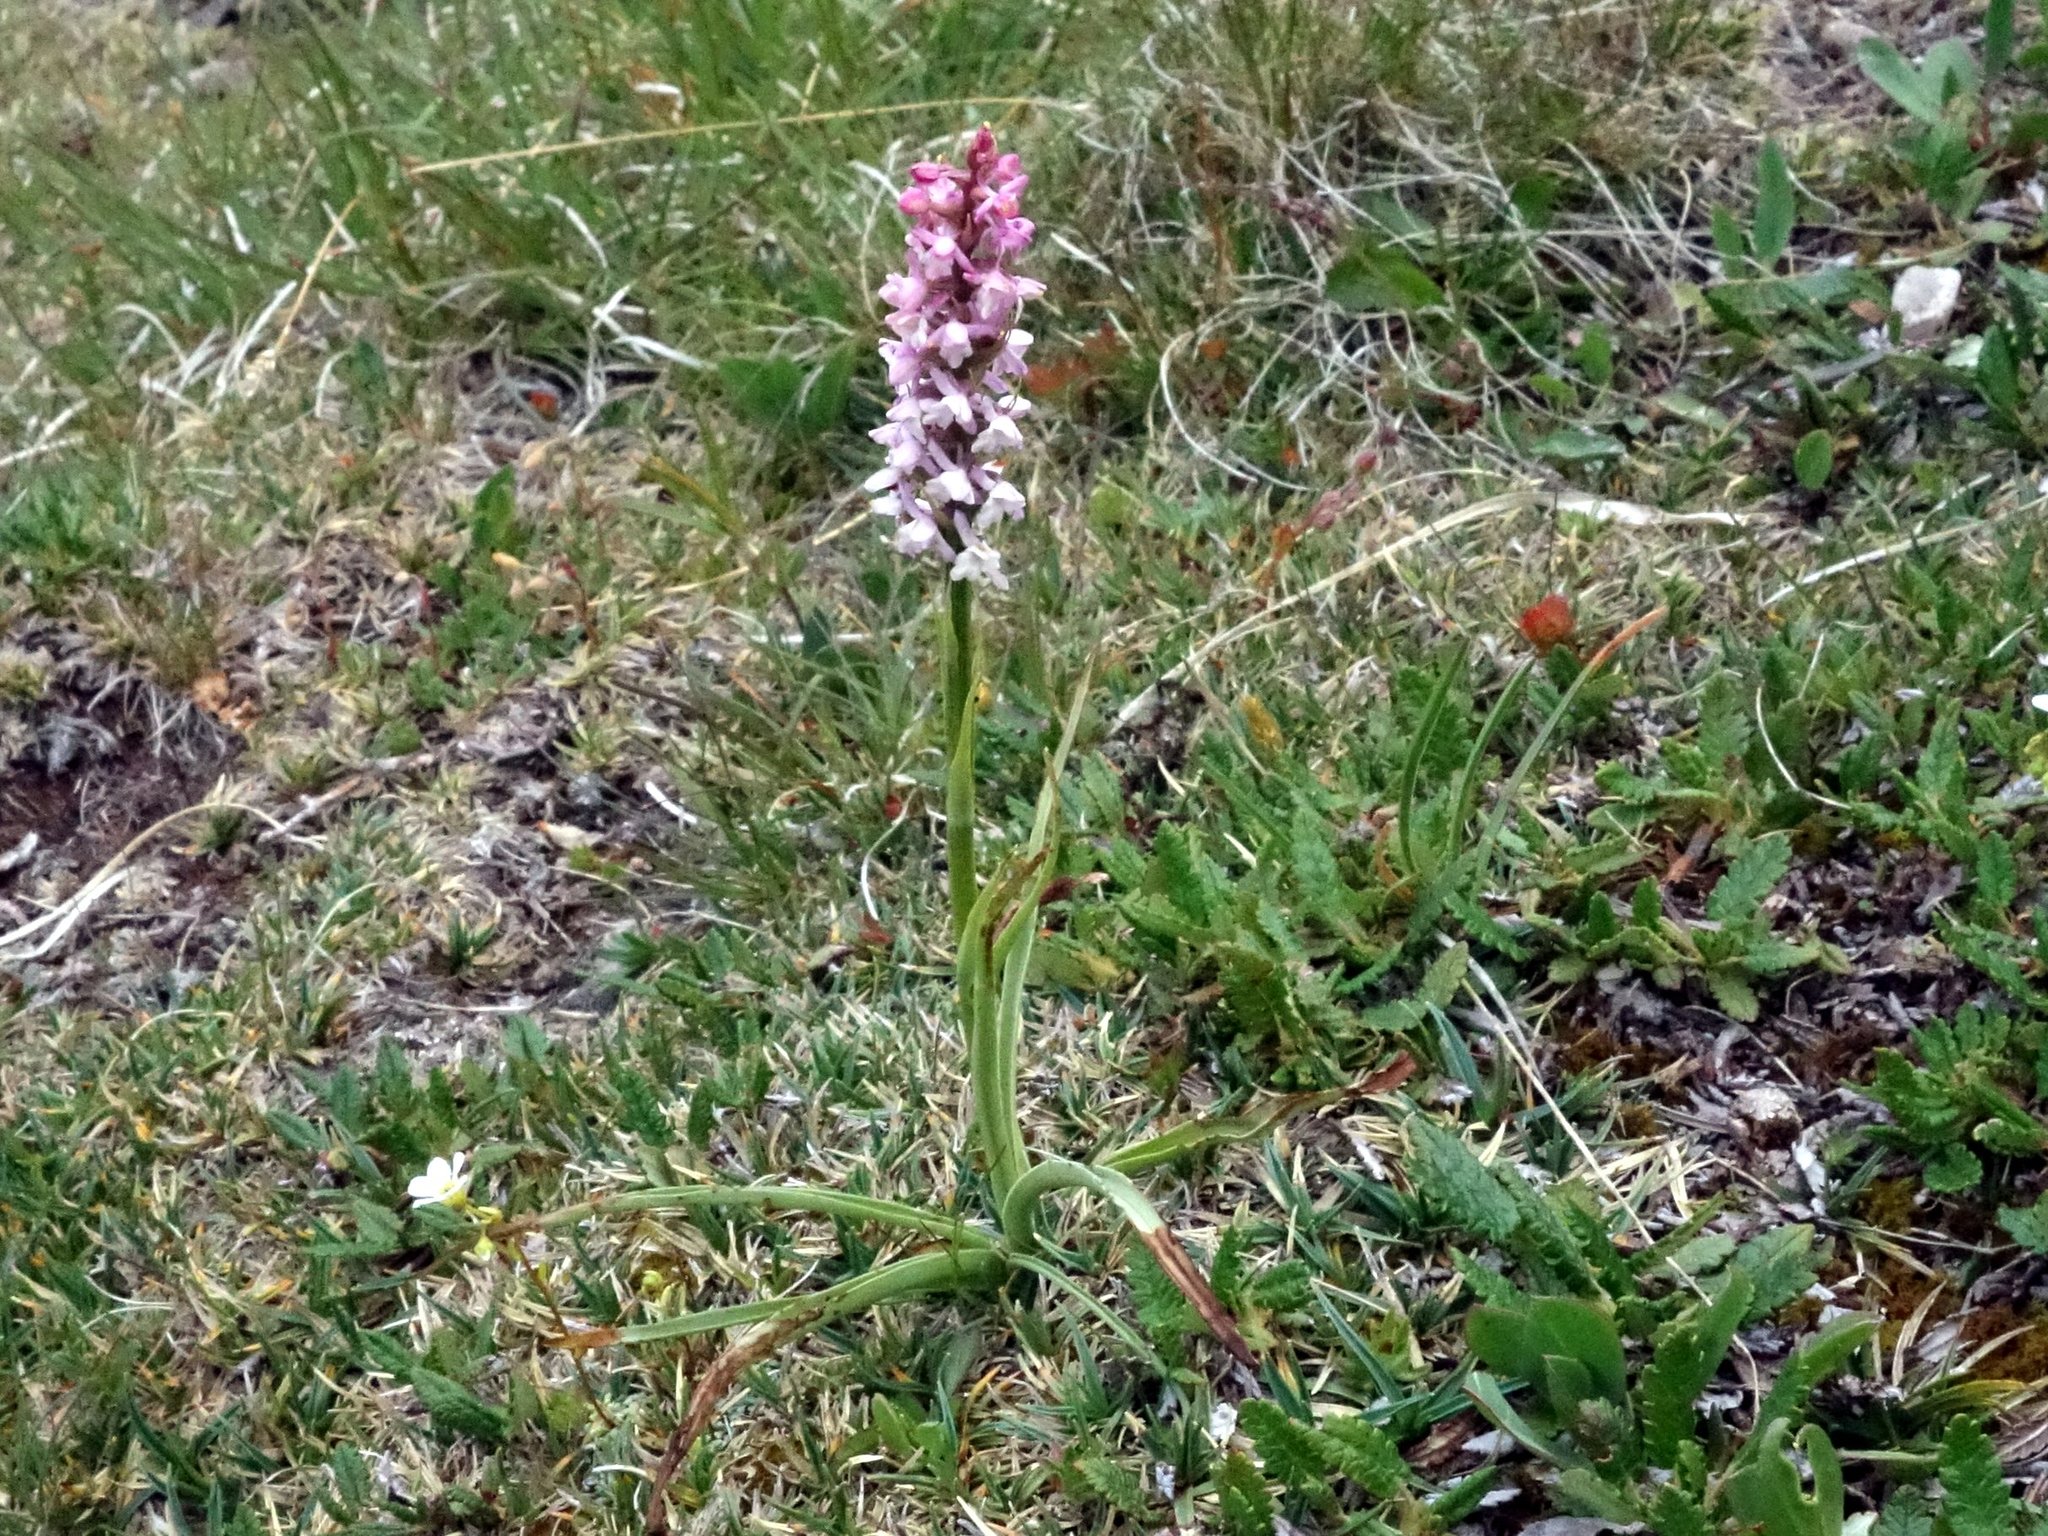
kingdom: Plantae
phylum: Tracheophyta
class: Liliopsida
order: Asparagales
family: Orchidaceae
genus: Gymnadenia
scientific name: Gymnadenia odoratissima
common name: Scented gymnadenia
